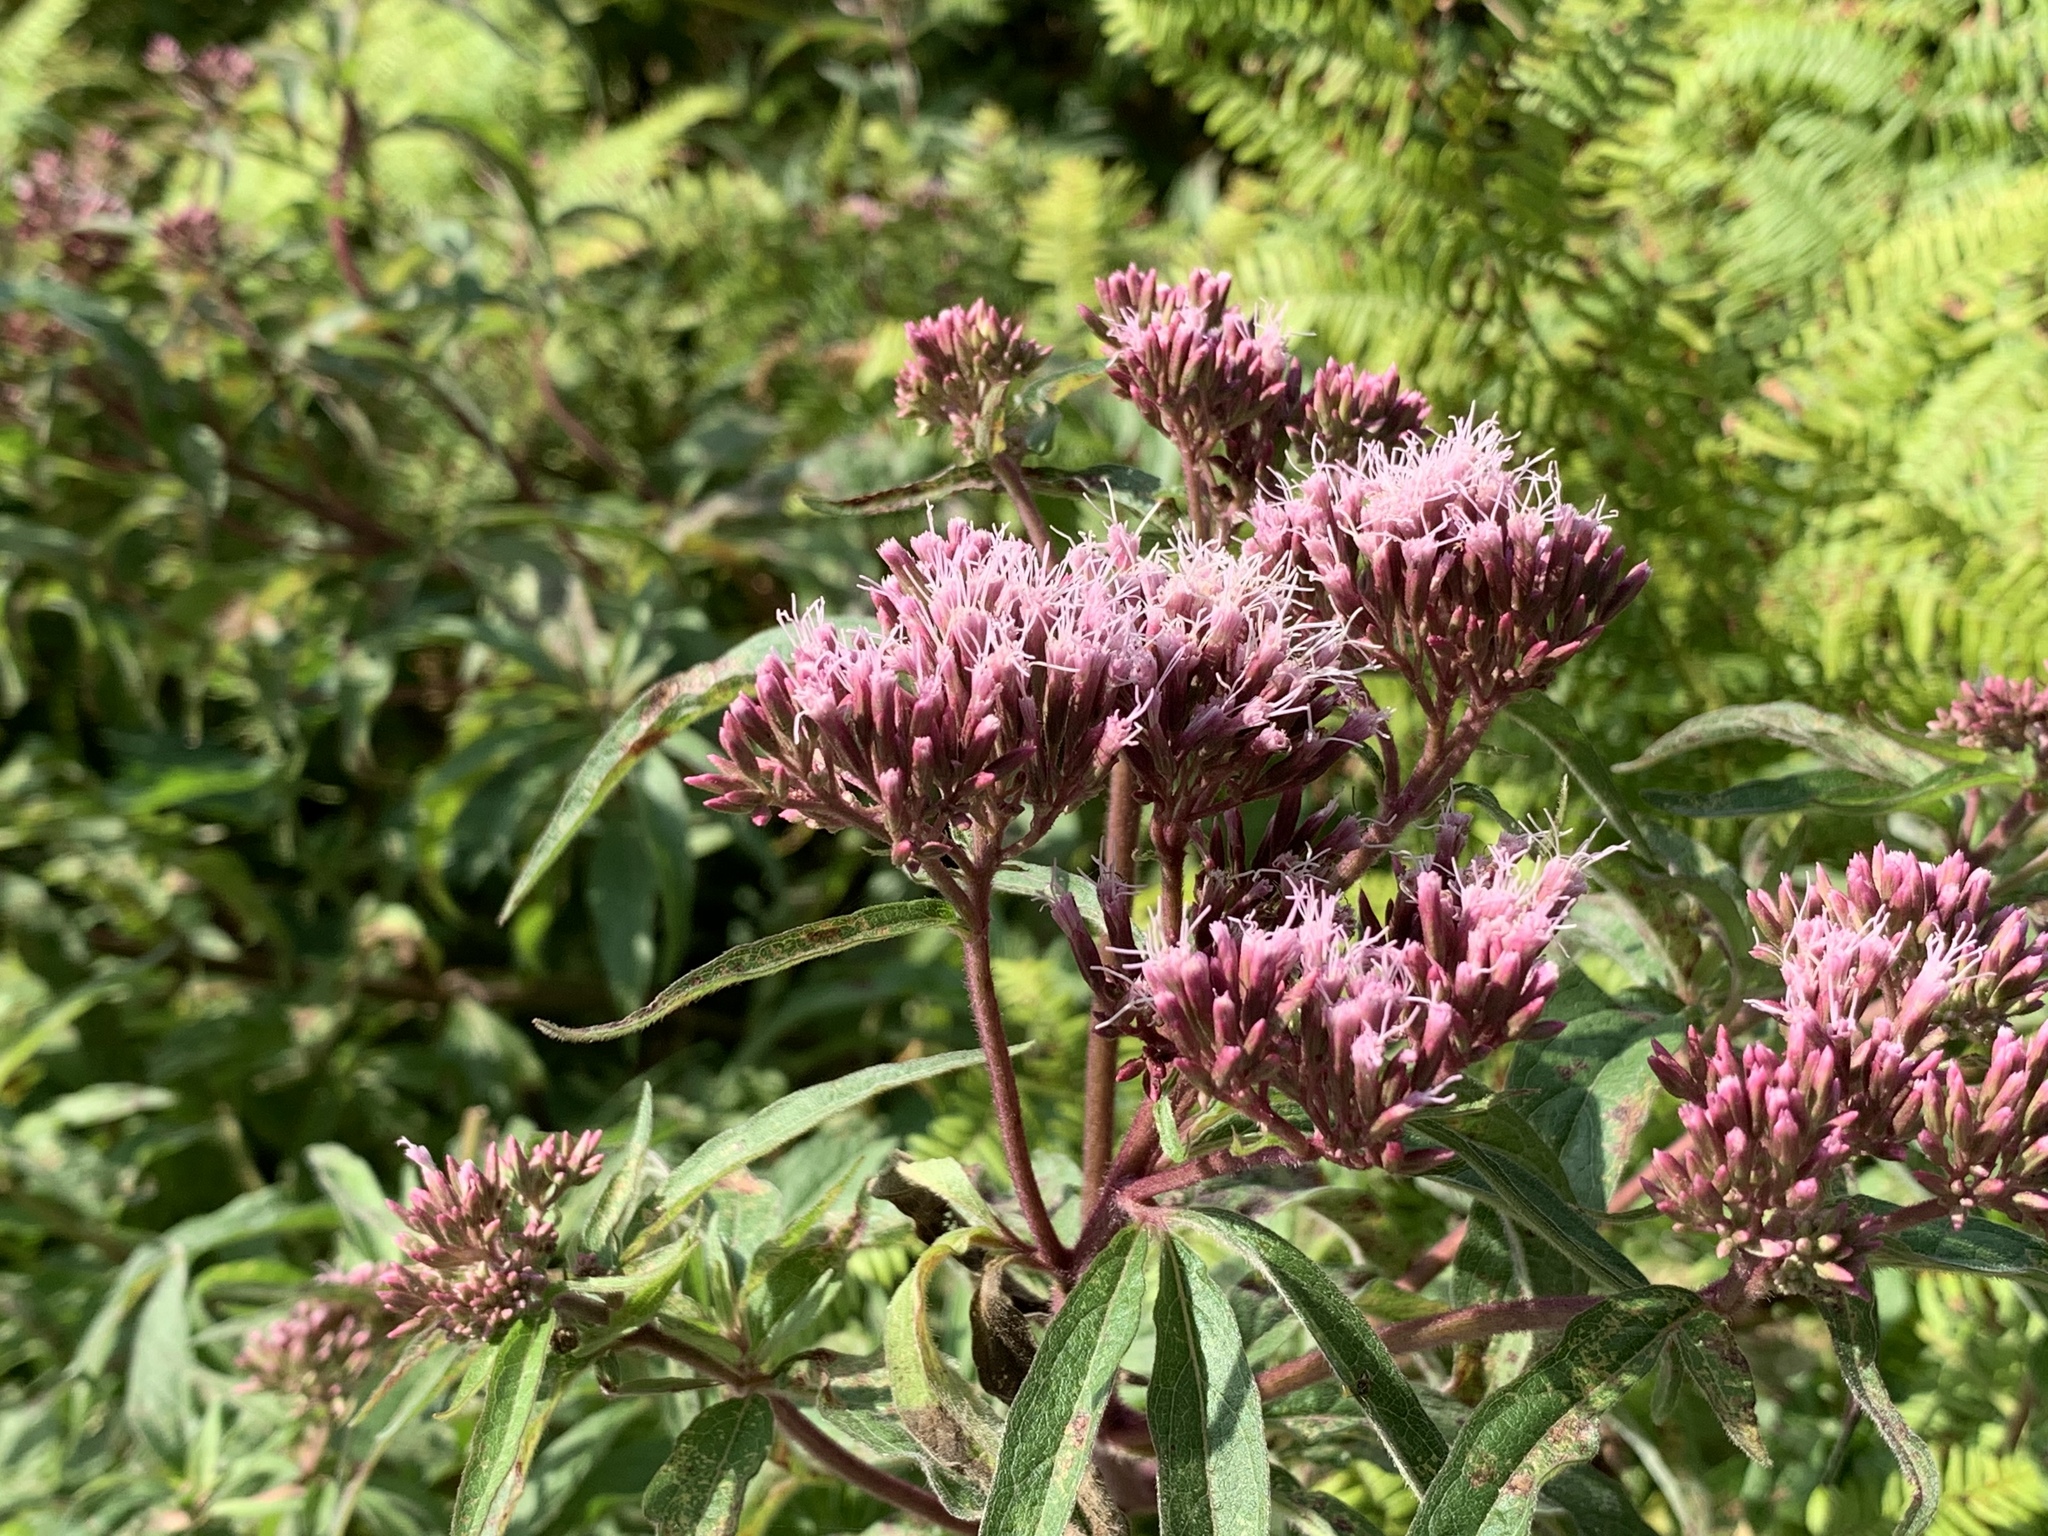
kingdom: Plantae
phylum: Tracheophyta
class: Magnoliopsida
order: Asterales
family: Asteraceae
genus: Eupatorium
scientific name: Eupatorium cannabinum
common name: Hemp-agrimony
